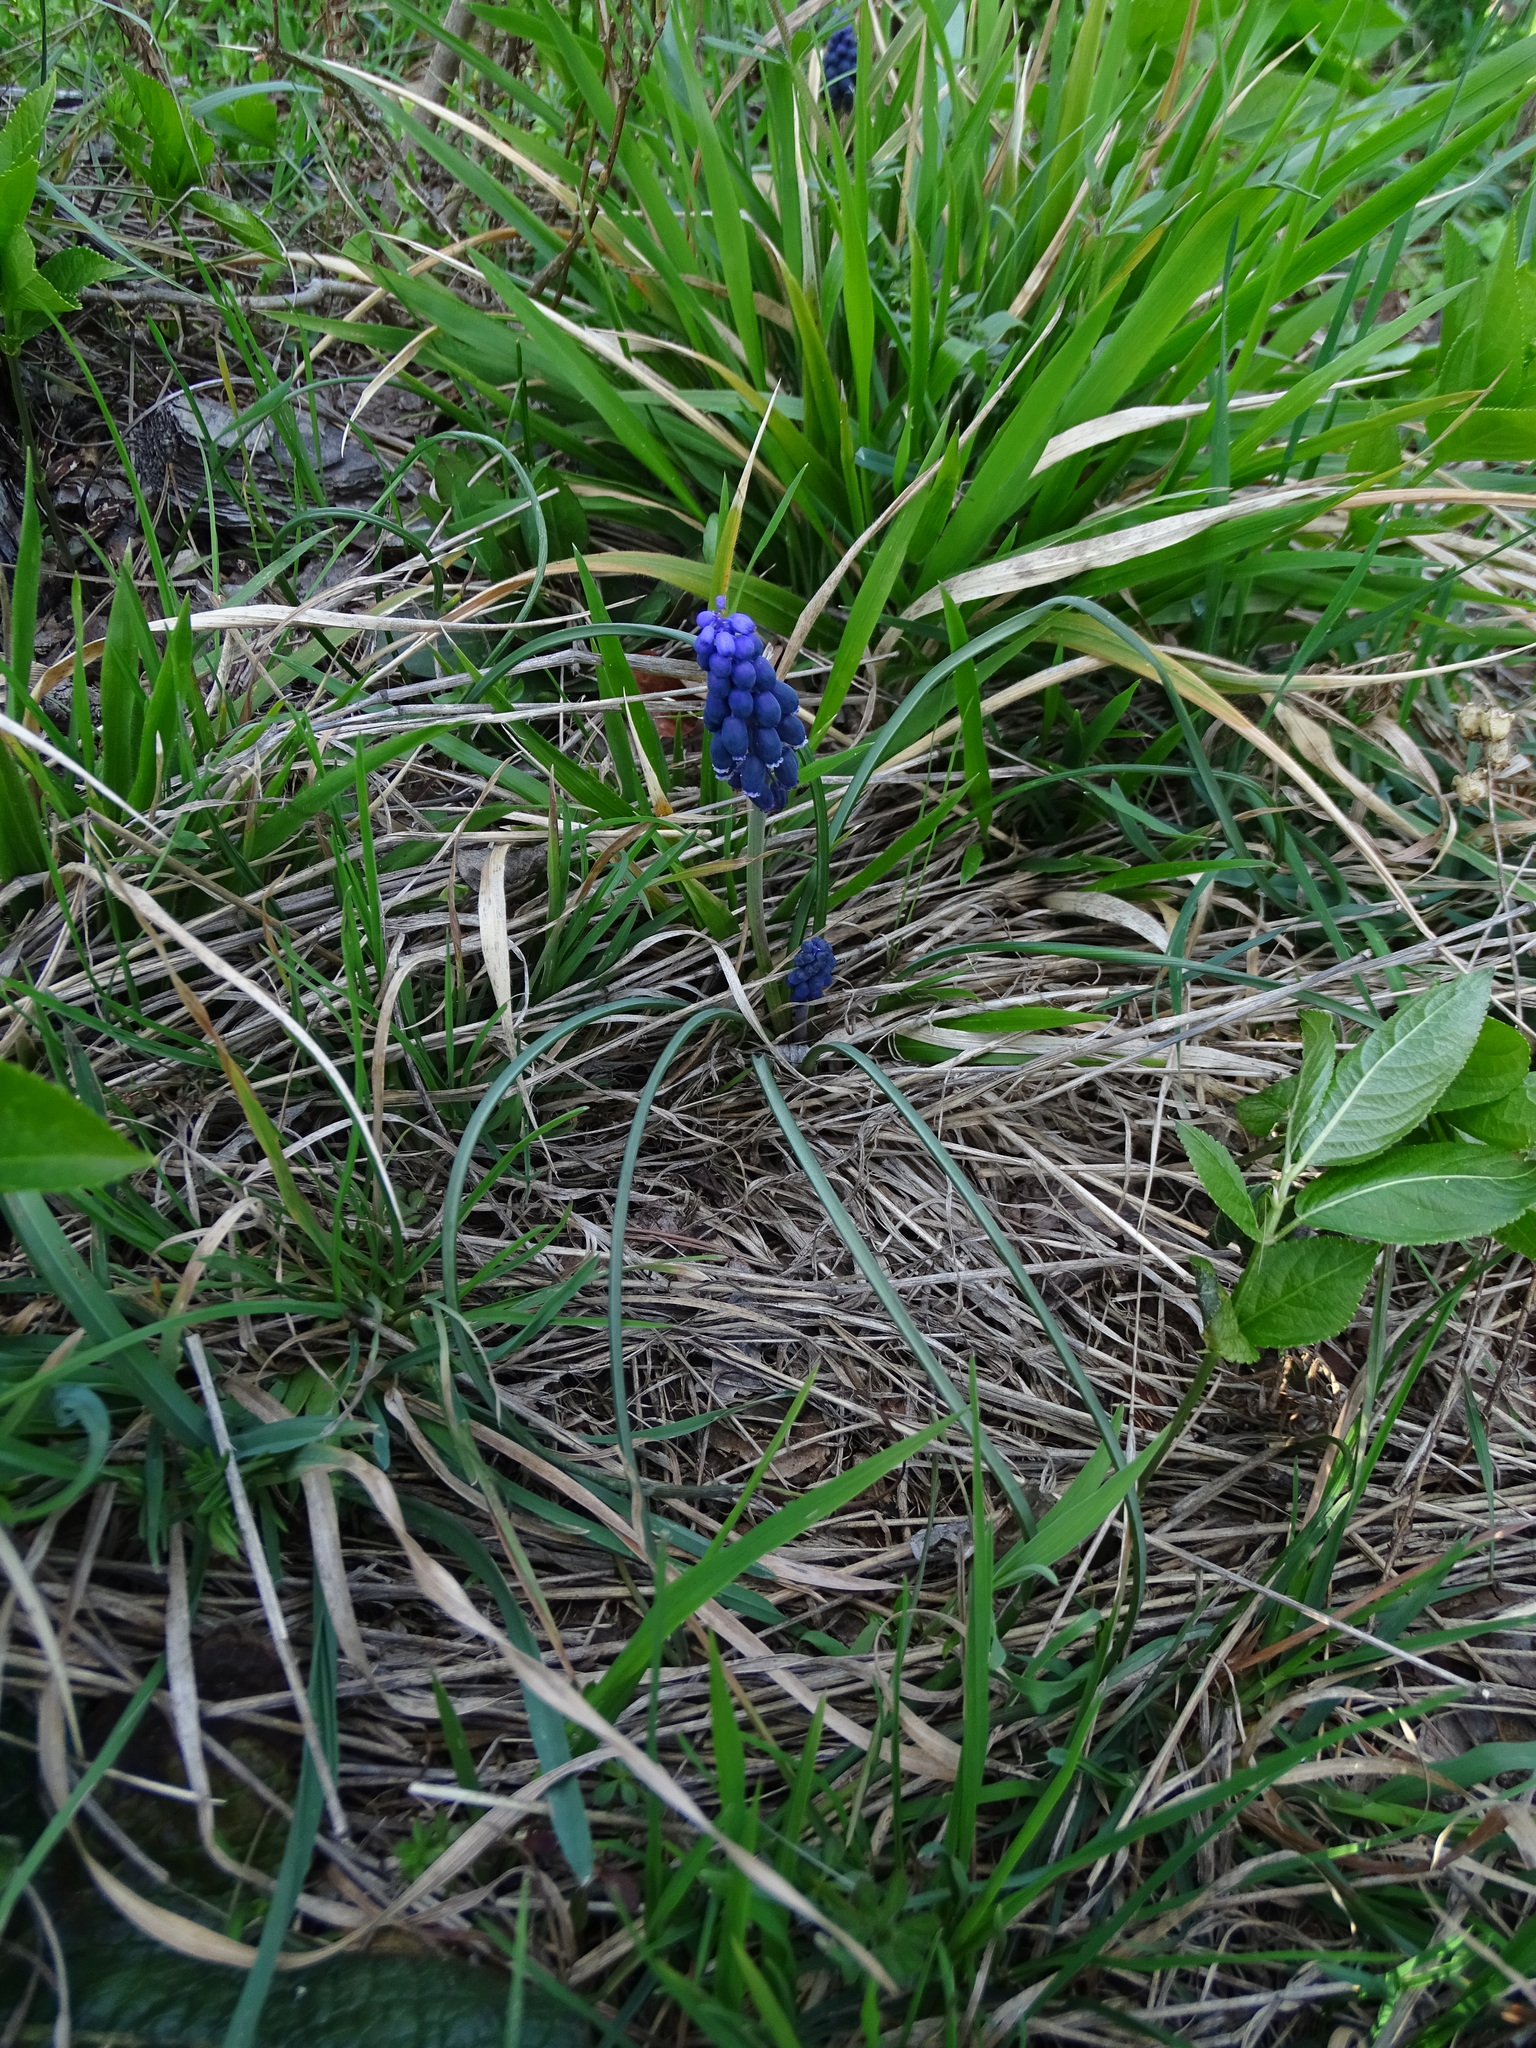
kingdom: Plantae
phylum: Tracheophyta
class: Liliopsida
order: Asparagales
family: Asparagaceae
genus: Muscari
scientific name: Muscari neglectum
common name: Grape-hyacinth
